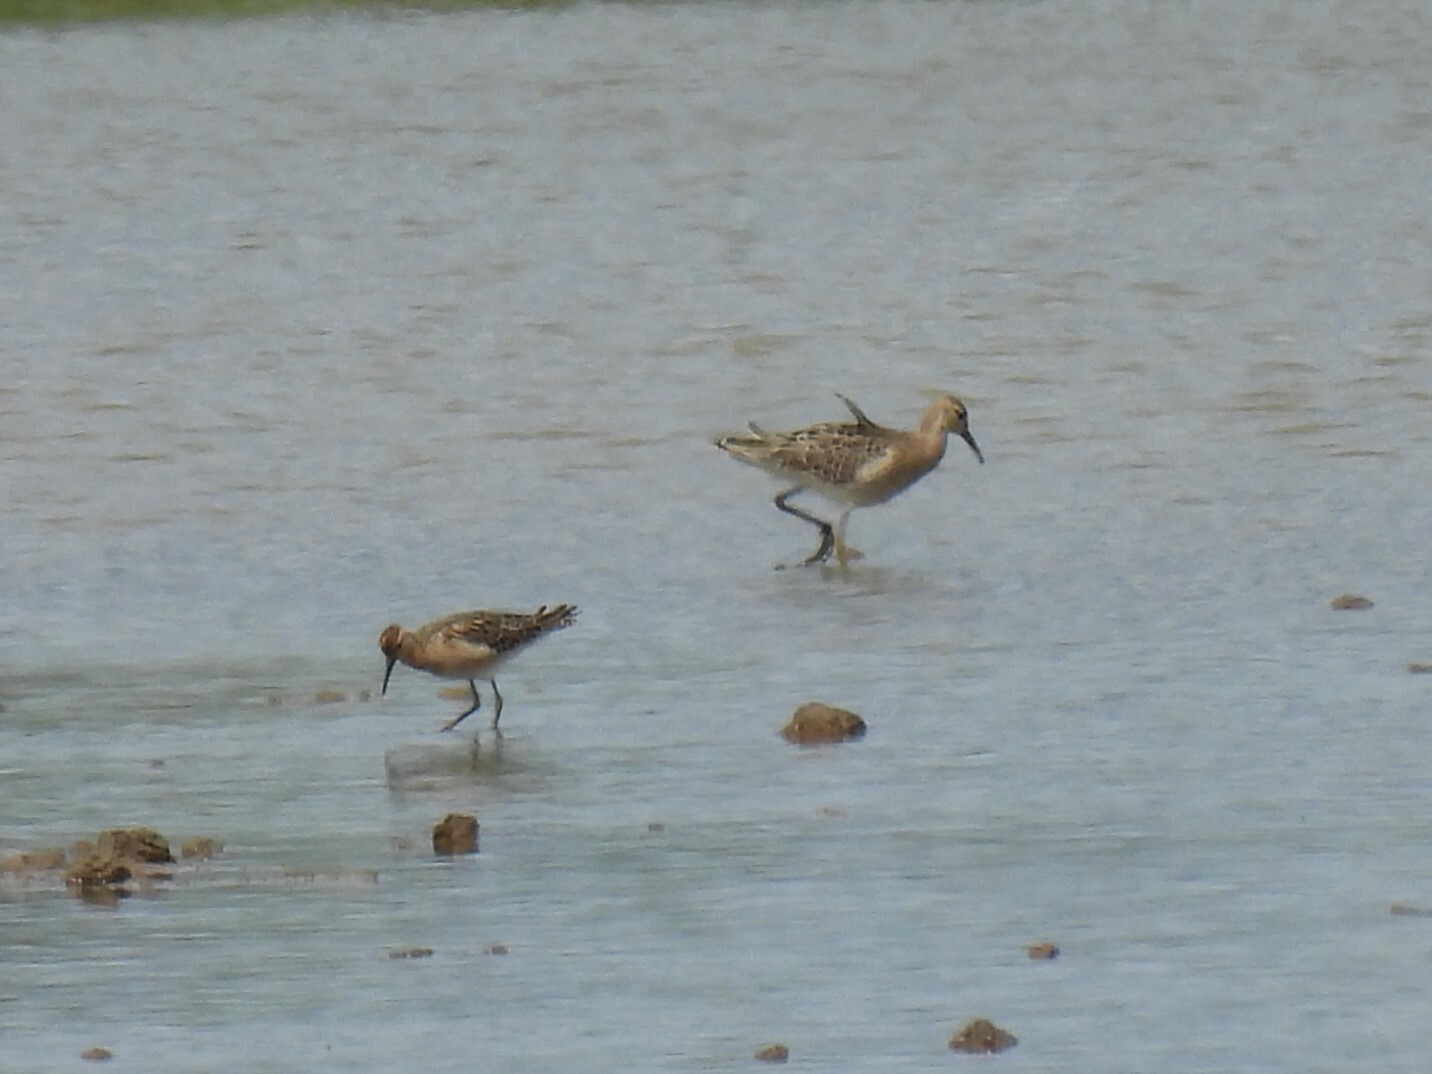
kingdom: Animalia
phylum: Chordata
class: Aves
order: Charadriiformes
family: Scolopacidae
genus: Calidris
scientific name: Calidris pugnax
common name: Ruff
